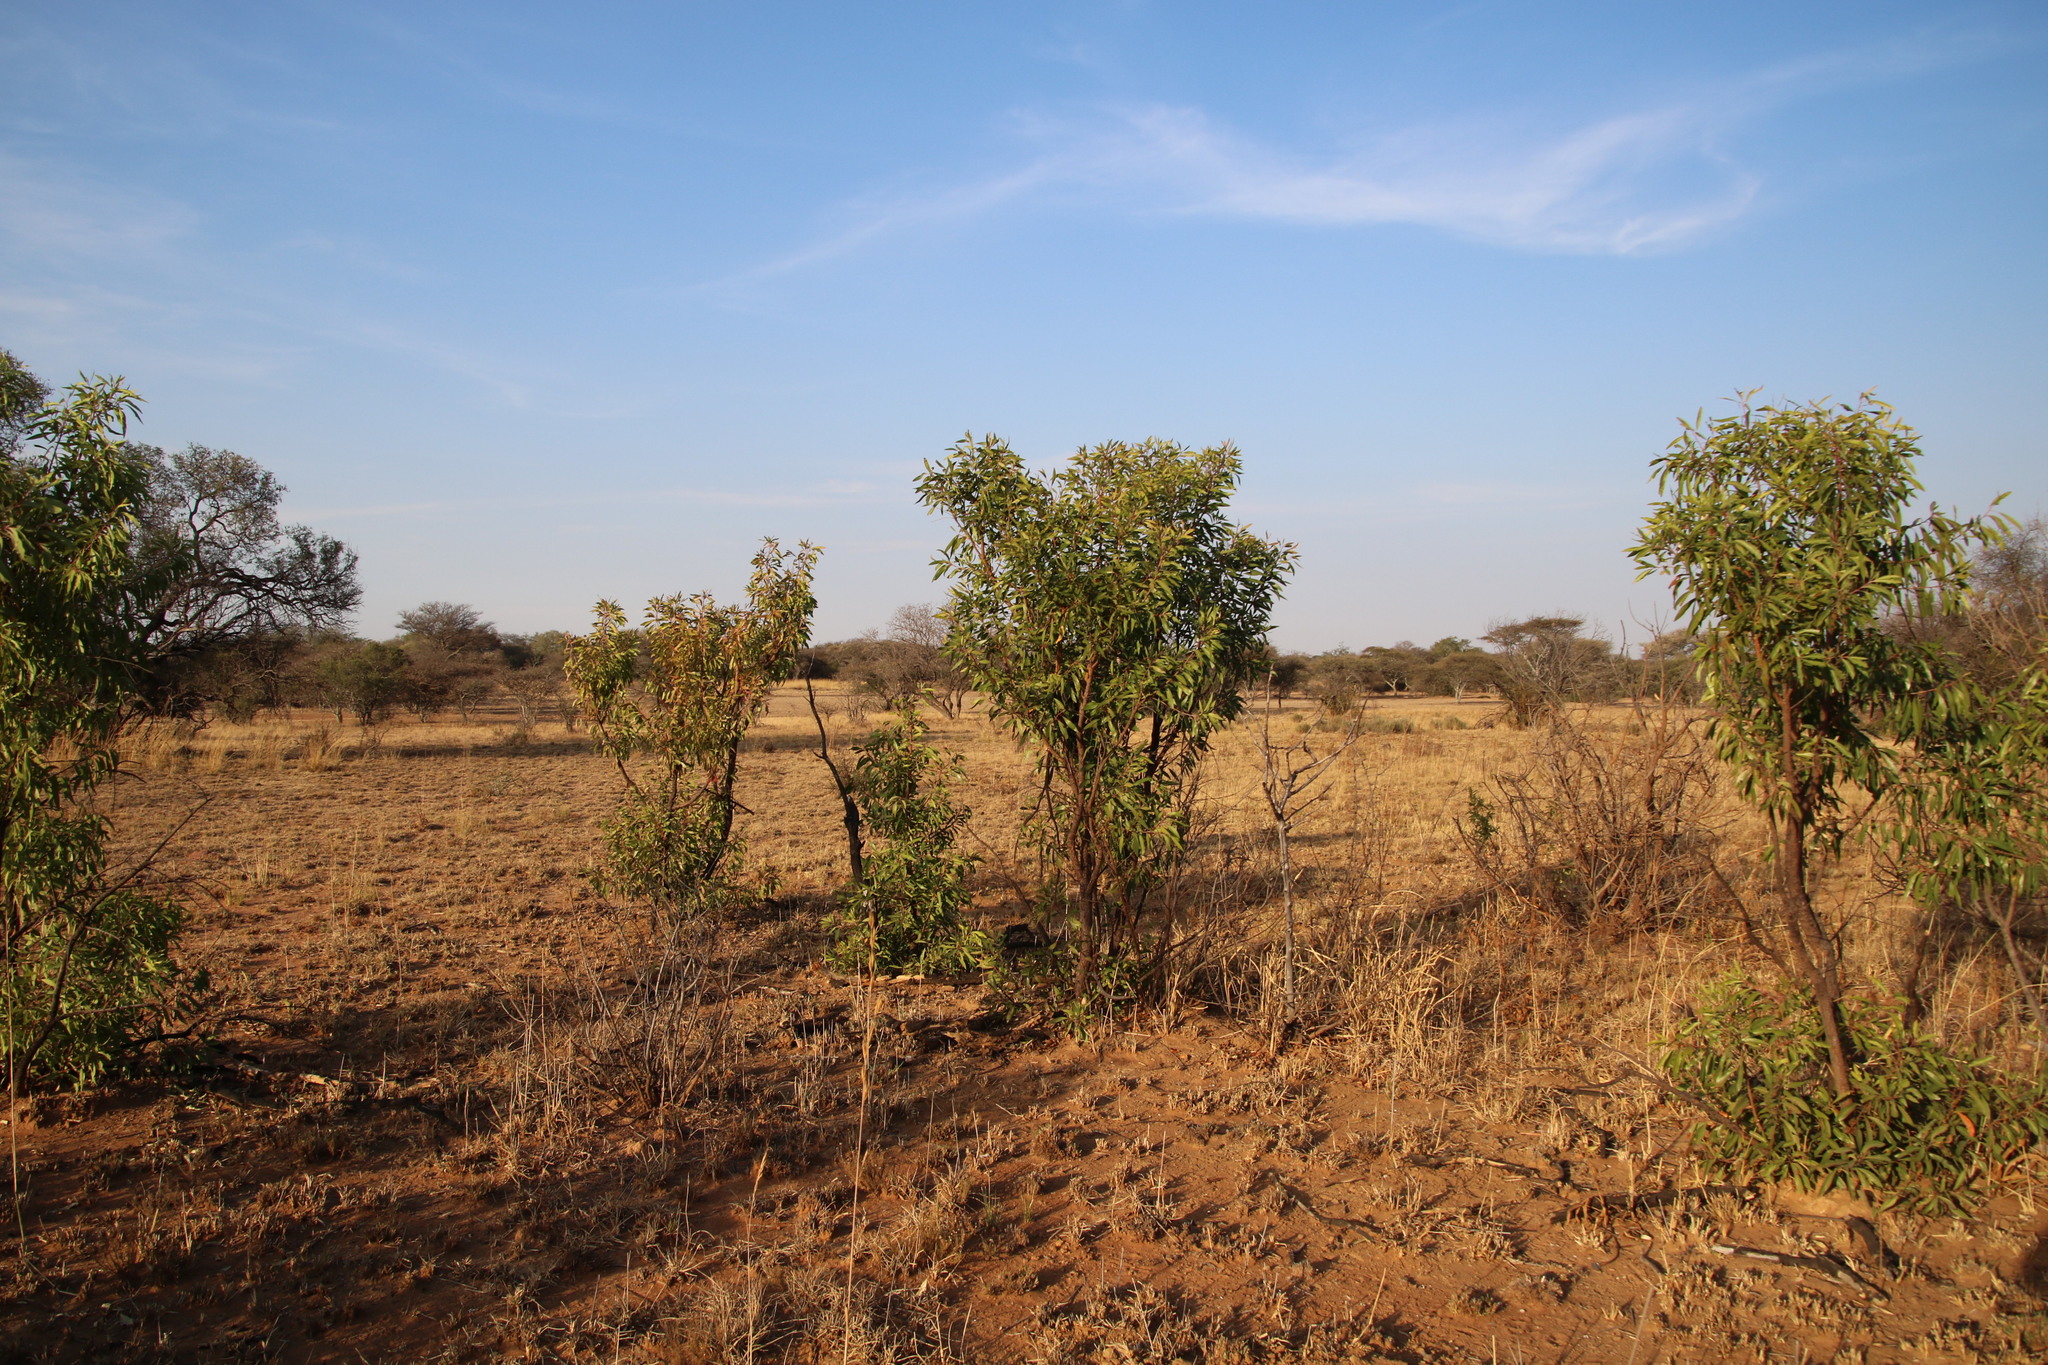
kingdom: Plantae
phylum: Tracheophyta
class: Magnoliopsida
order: Proteales
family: Proteaceae
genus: Faurea
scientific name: Faurea saligna
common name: African bean
